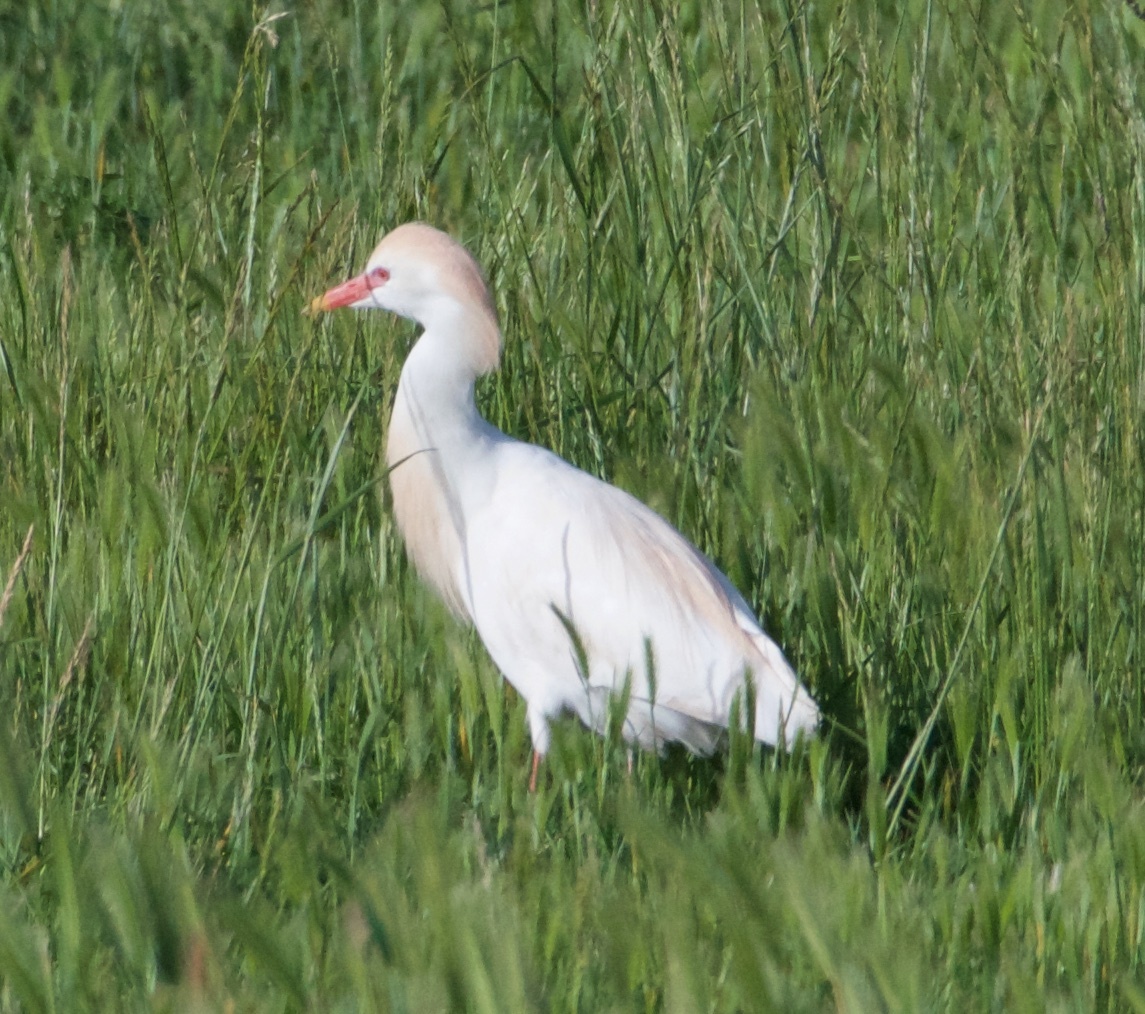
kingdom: Animalia
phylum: Chordata
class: Aves
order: Pelecaniformes
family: Ardeidae
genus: Bubulcus
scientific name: Bubulcus ibis
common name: Cattle egret
